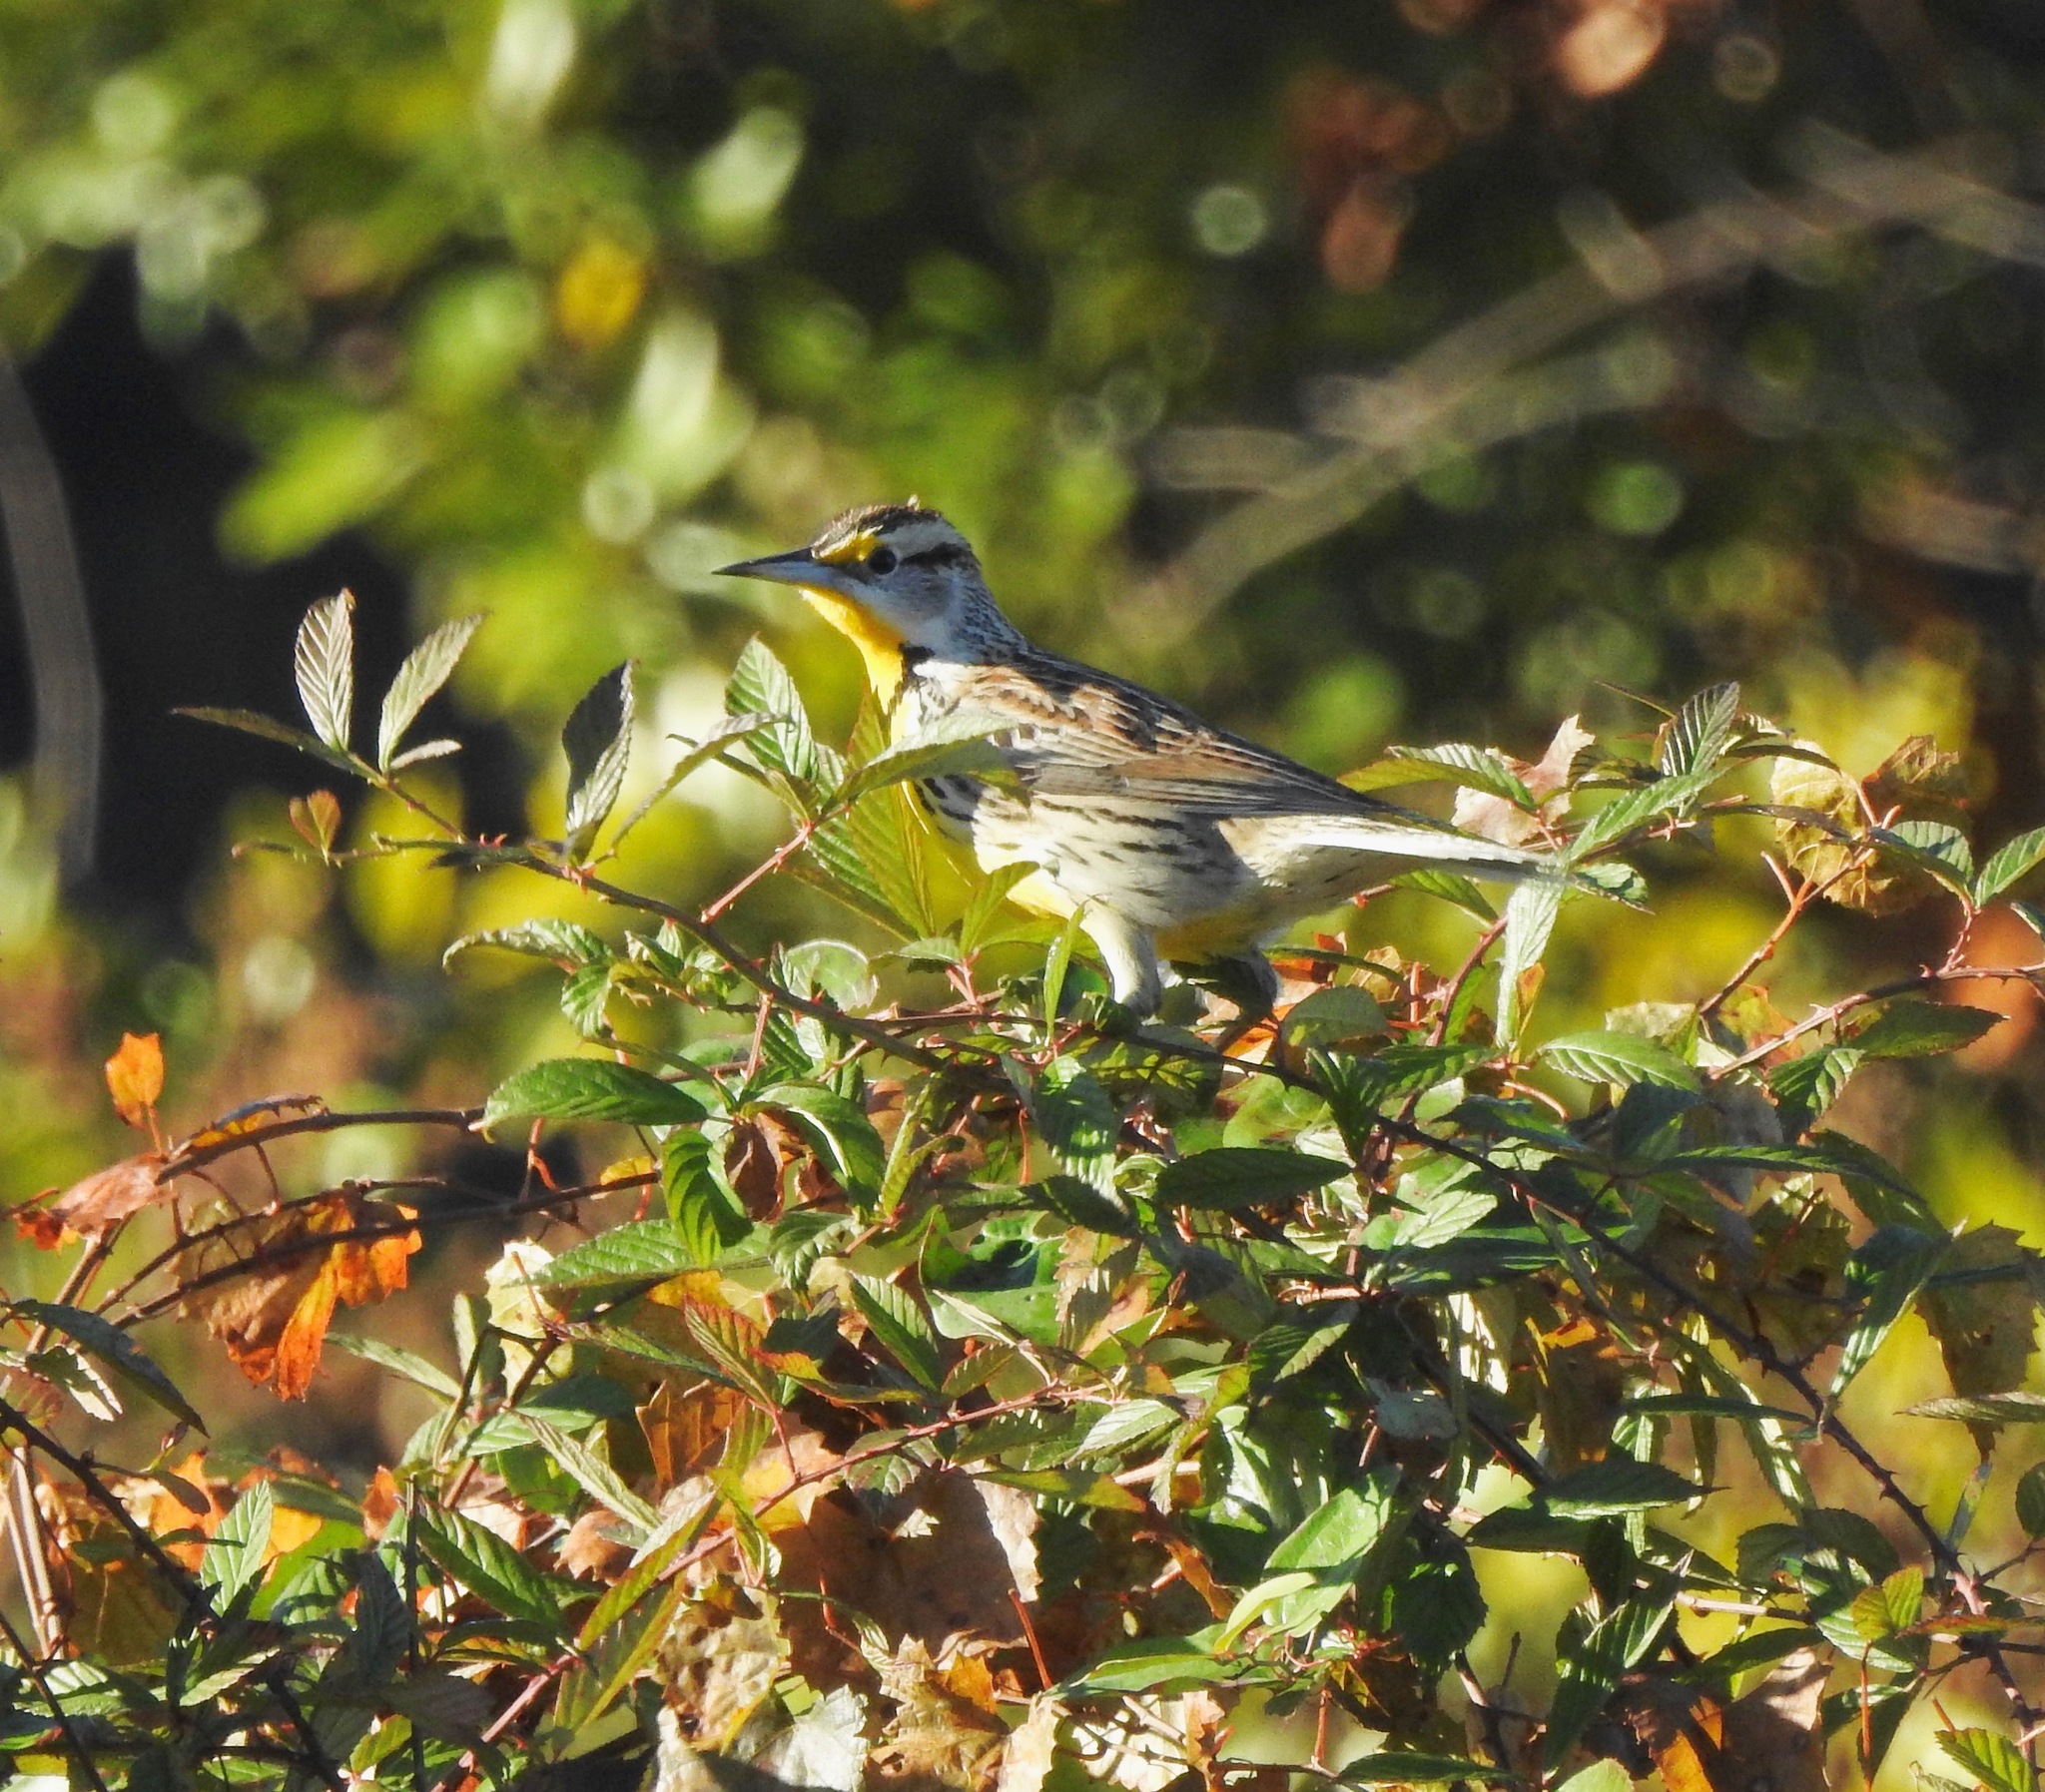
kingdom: Animalia
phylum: Chordata
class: Aves
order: Passeriformes
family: Icteridae
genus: Sturnella
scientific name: Sturnella magna
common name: Eastern meadowlark
